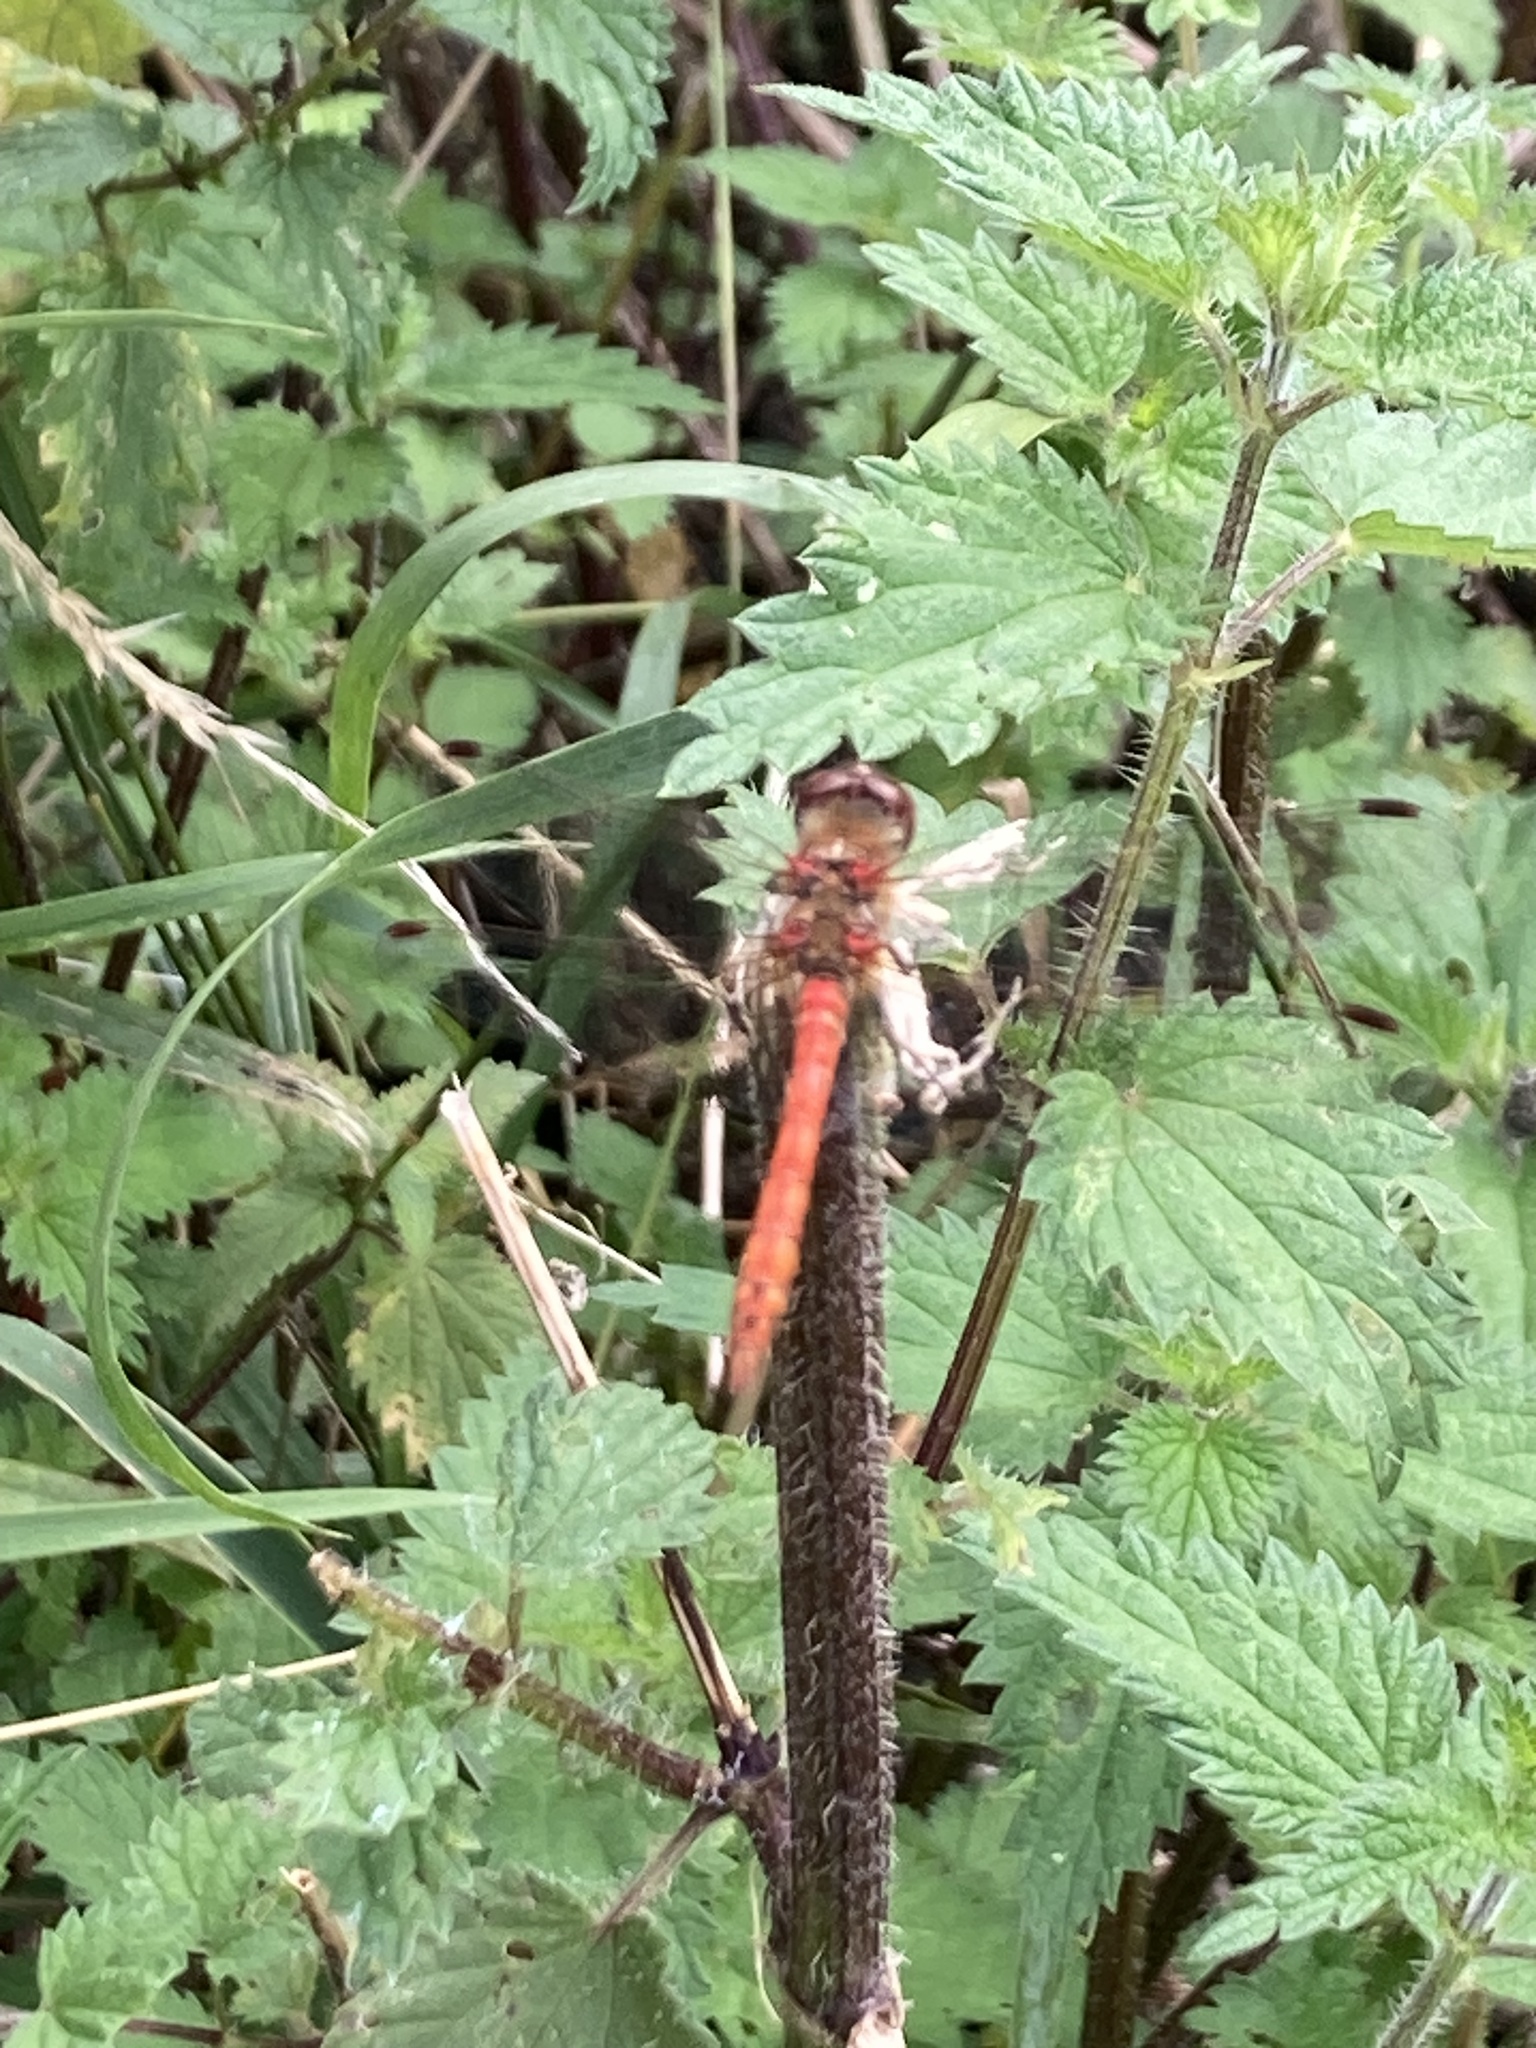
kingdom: Animalia
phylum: Arthropoda
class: Insecta
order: Odonata
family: Libellulidae
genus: Sympetrum
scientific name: Sympetrum striolatum
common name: Common darter
